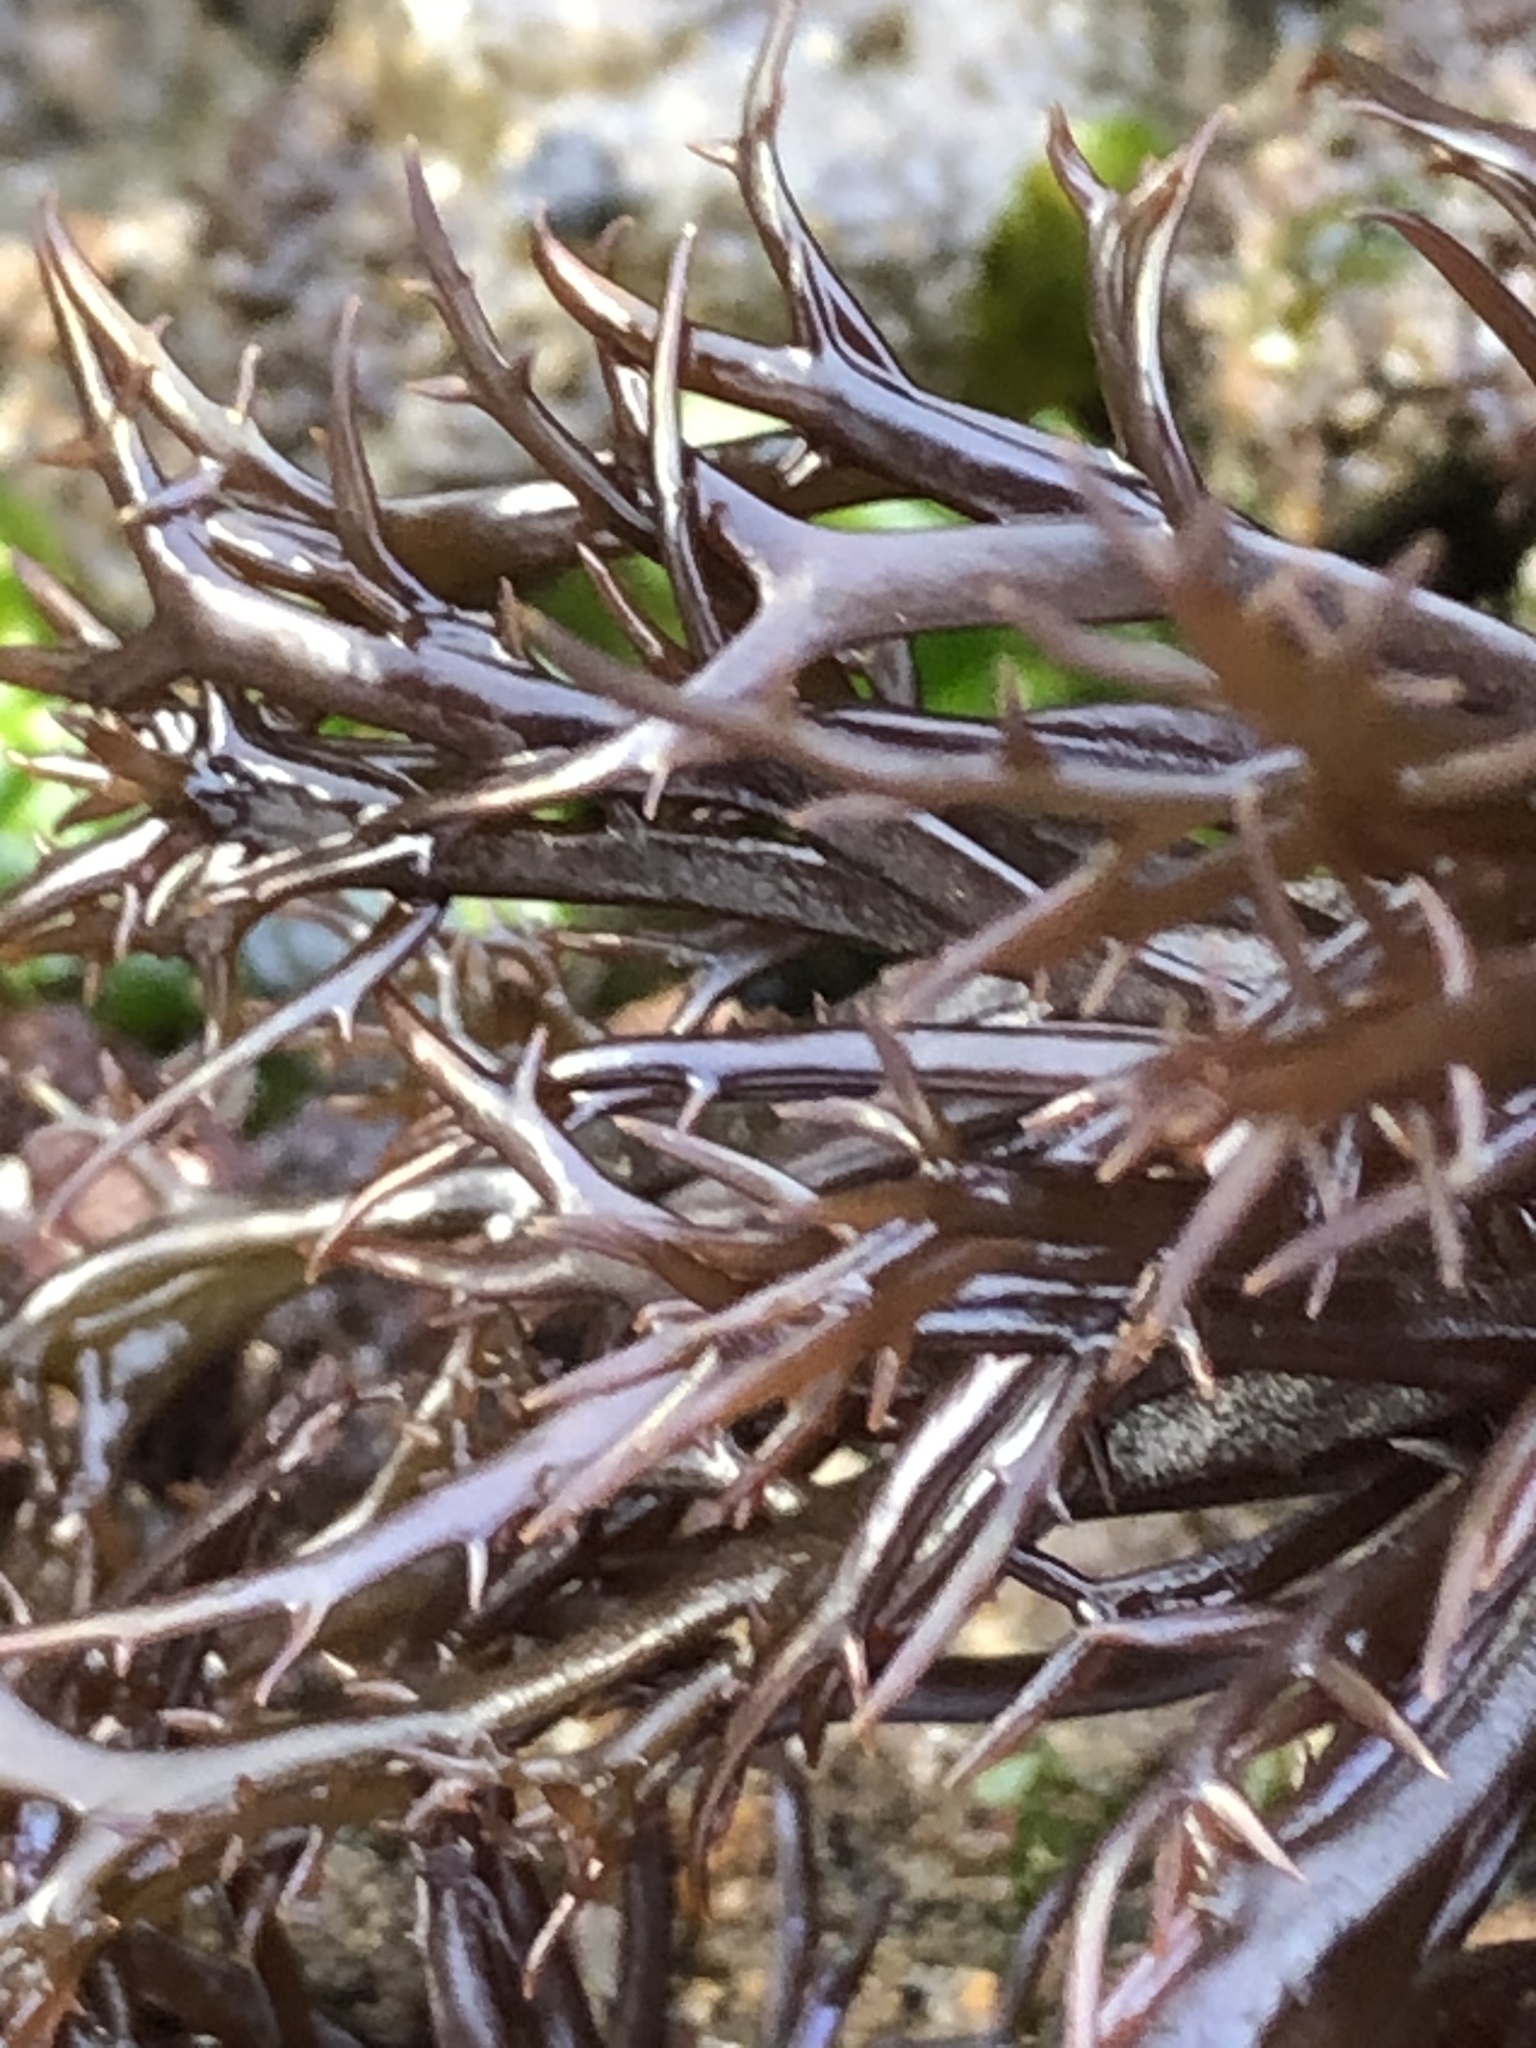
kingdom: Plantae
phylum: Rhodophyta
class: Florideophyceae
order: Gigartinales
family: Gigartinaceae
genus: Chondracanthus
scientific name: Chondracanthus canaliculatus
